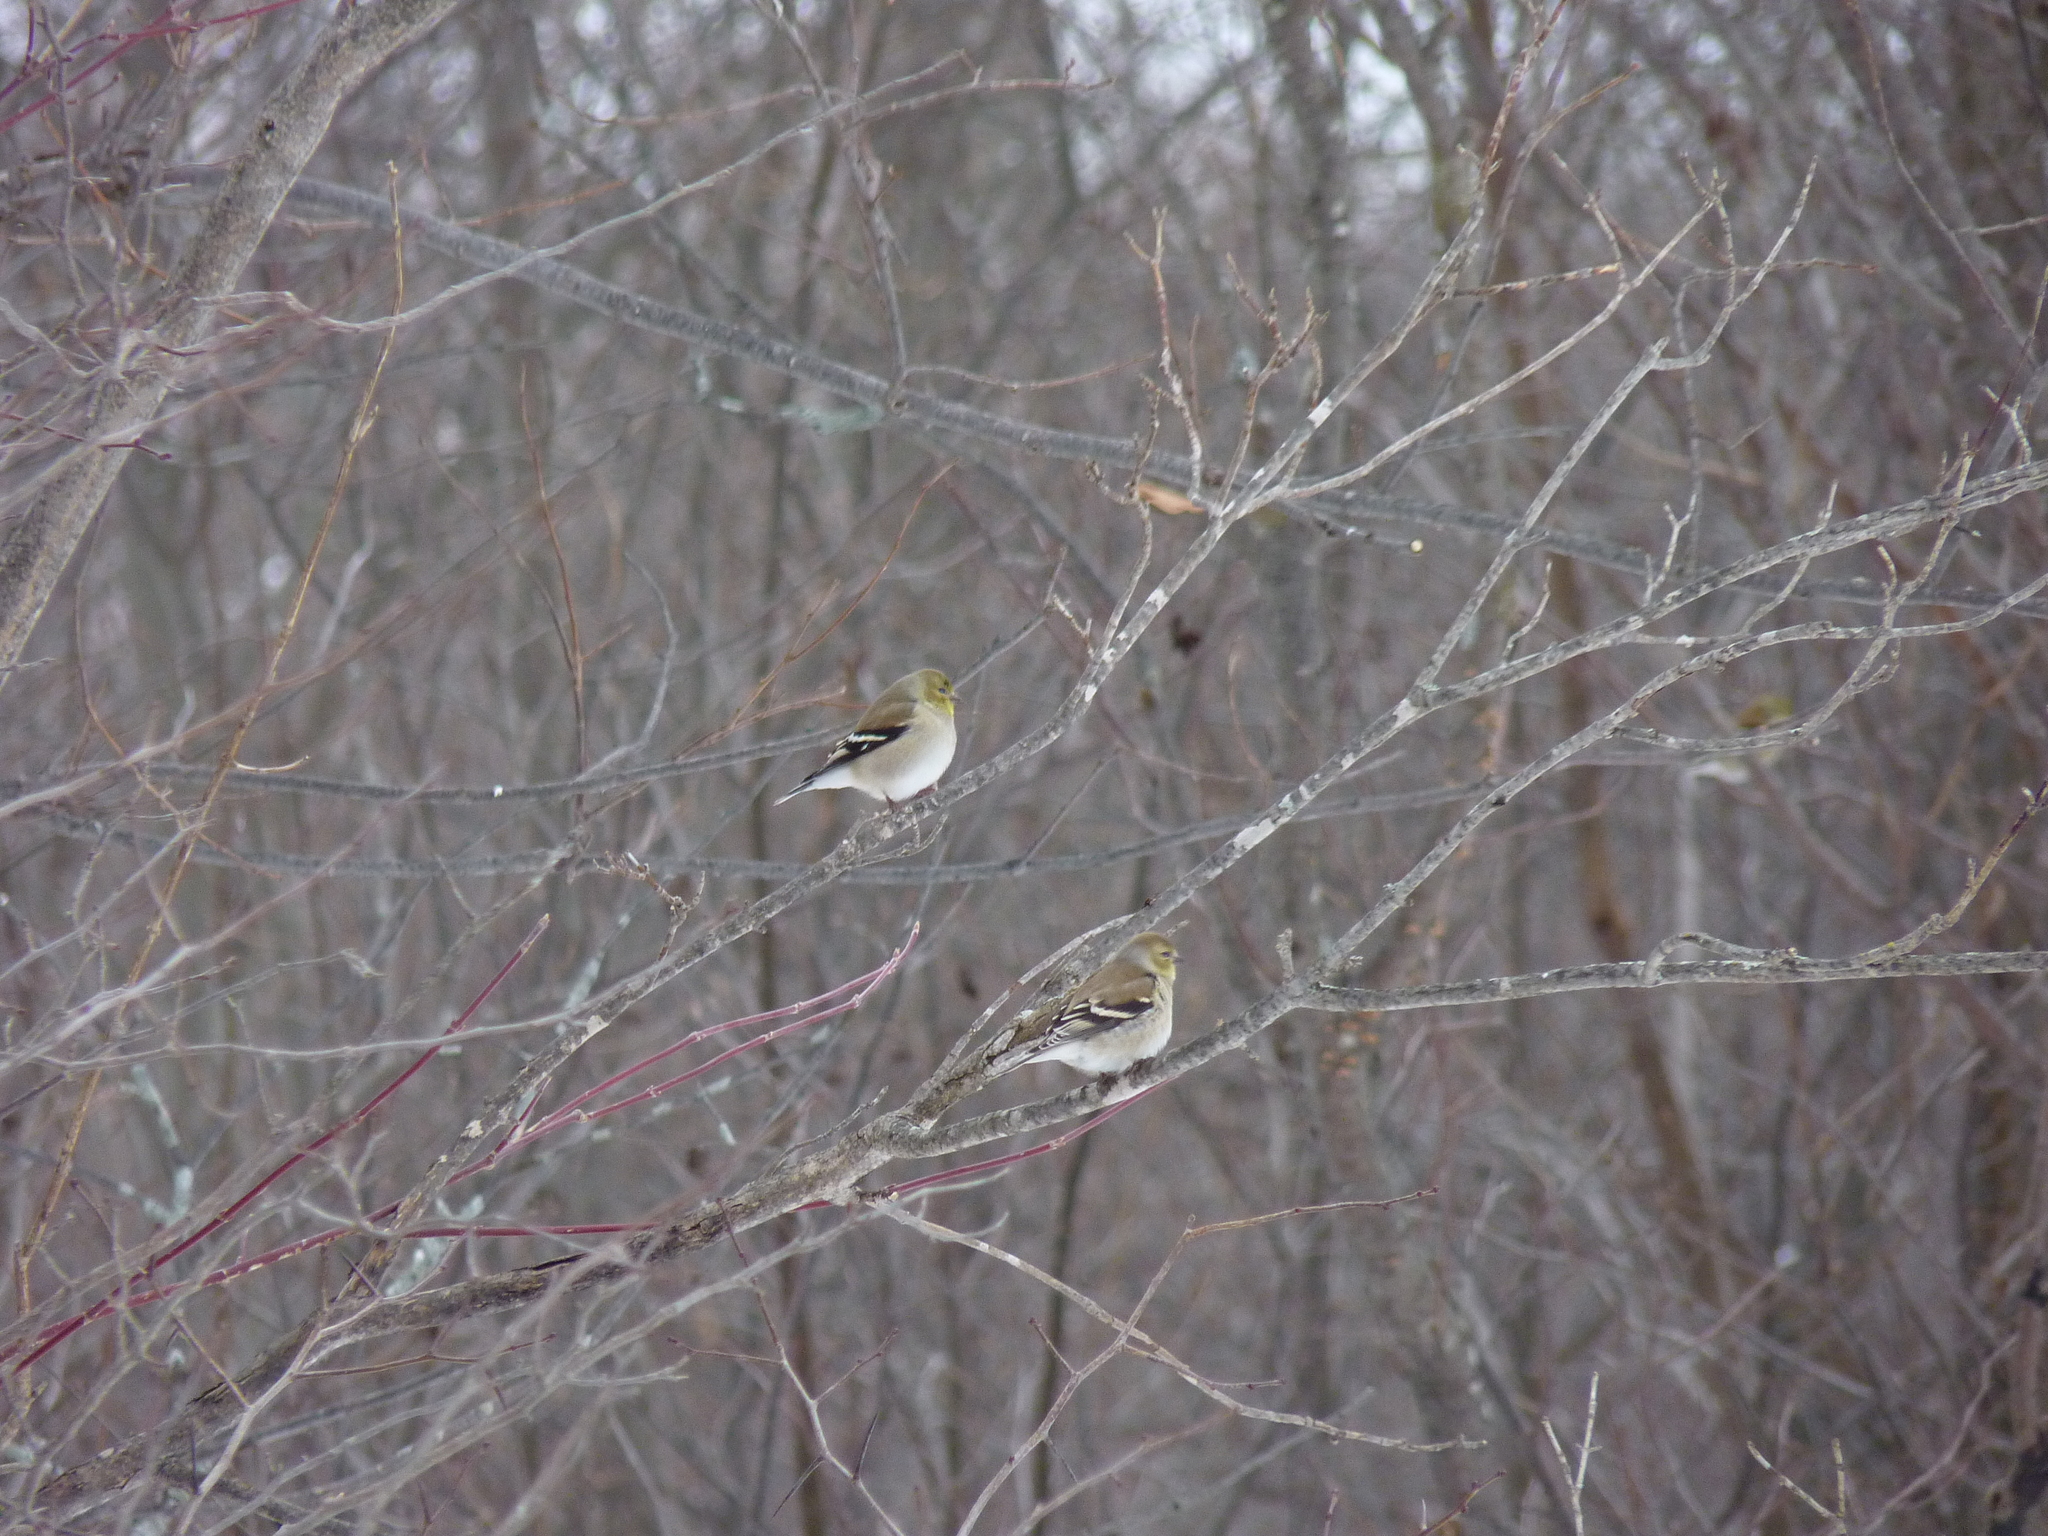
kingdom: Animalia
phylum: Chordata
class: Aves
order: Passeriformes
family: Fringillidae
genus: Spinus
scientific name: Spinus tristis
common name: American goldfinch
